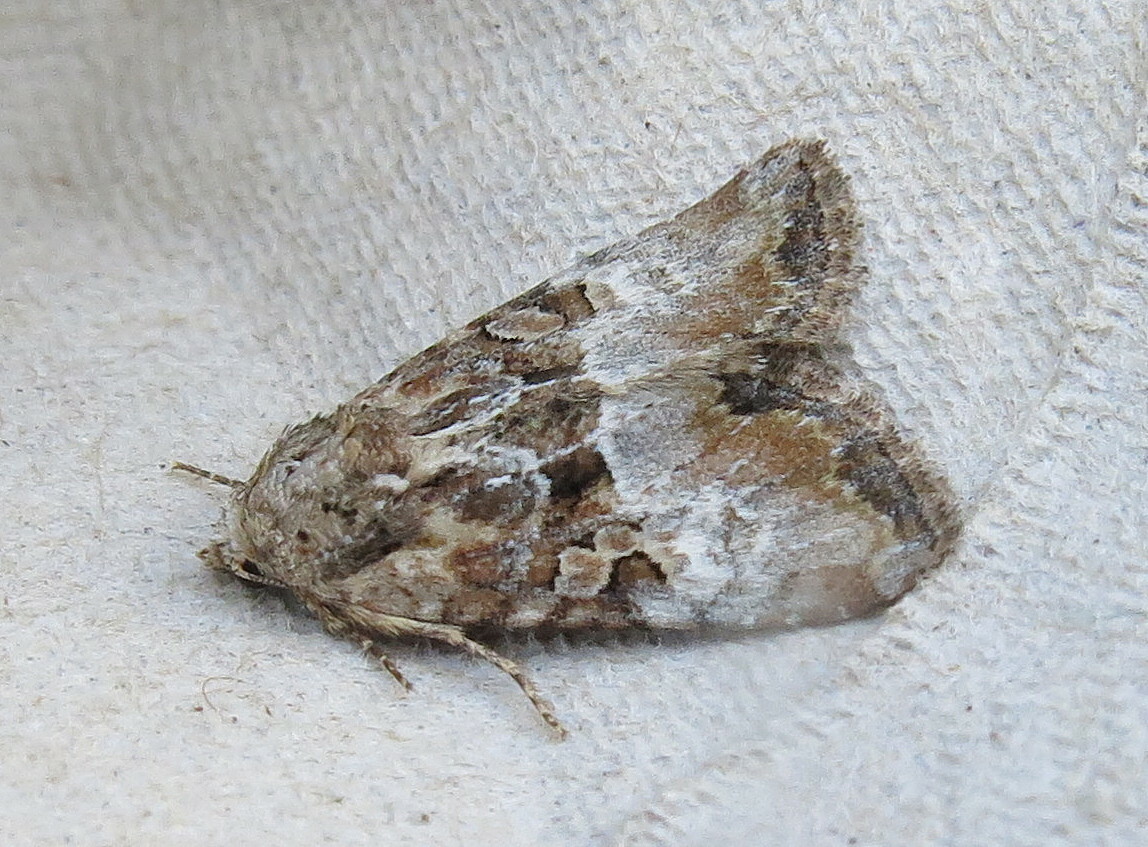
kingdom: Animalia
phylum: Arthropoda
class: Insecta
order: Lepidoptera
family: Noctuidae
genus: Mesoligia
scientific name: Mesoligia furuncula
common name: Cloaked minor
